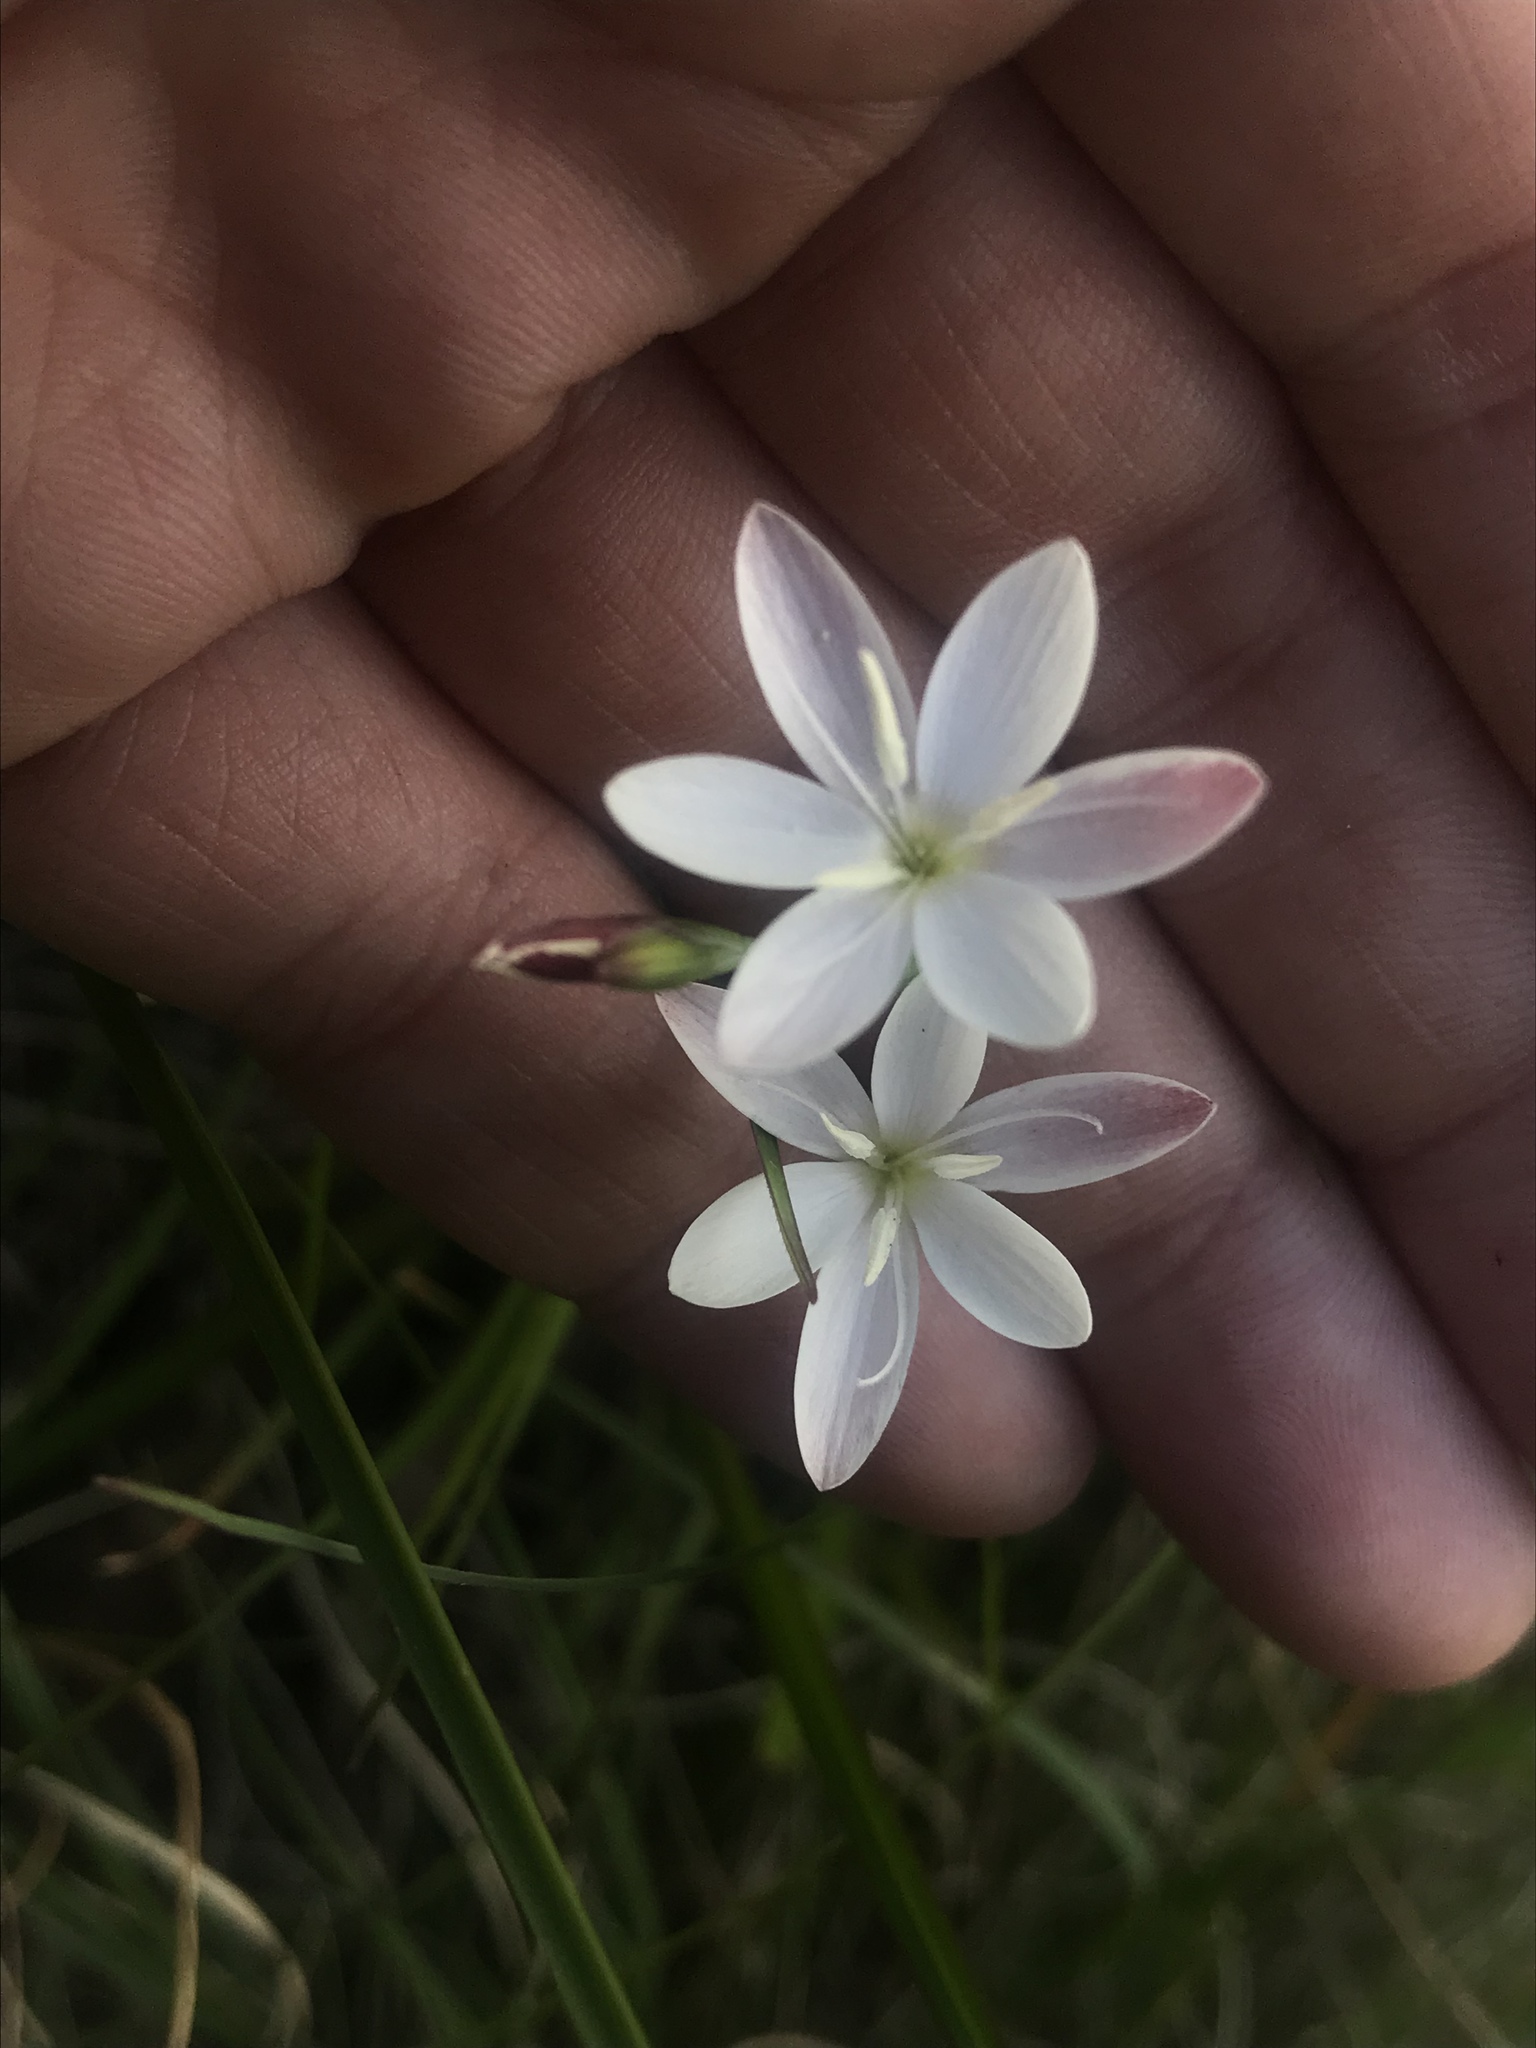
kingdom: Plantae
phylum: Tracheophyta
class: Liliopsida
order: Asparagales
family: Iridaceae
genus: Hesperantha
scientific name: Hesperantha falcata
